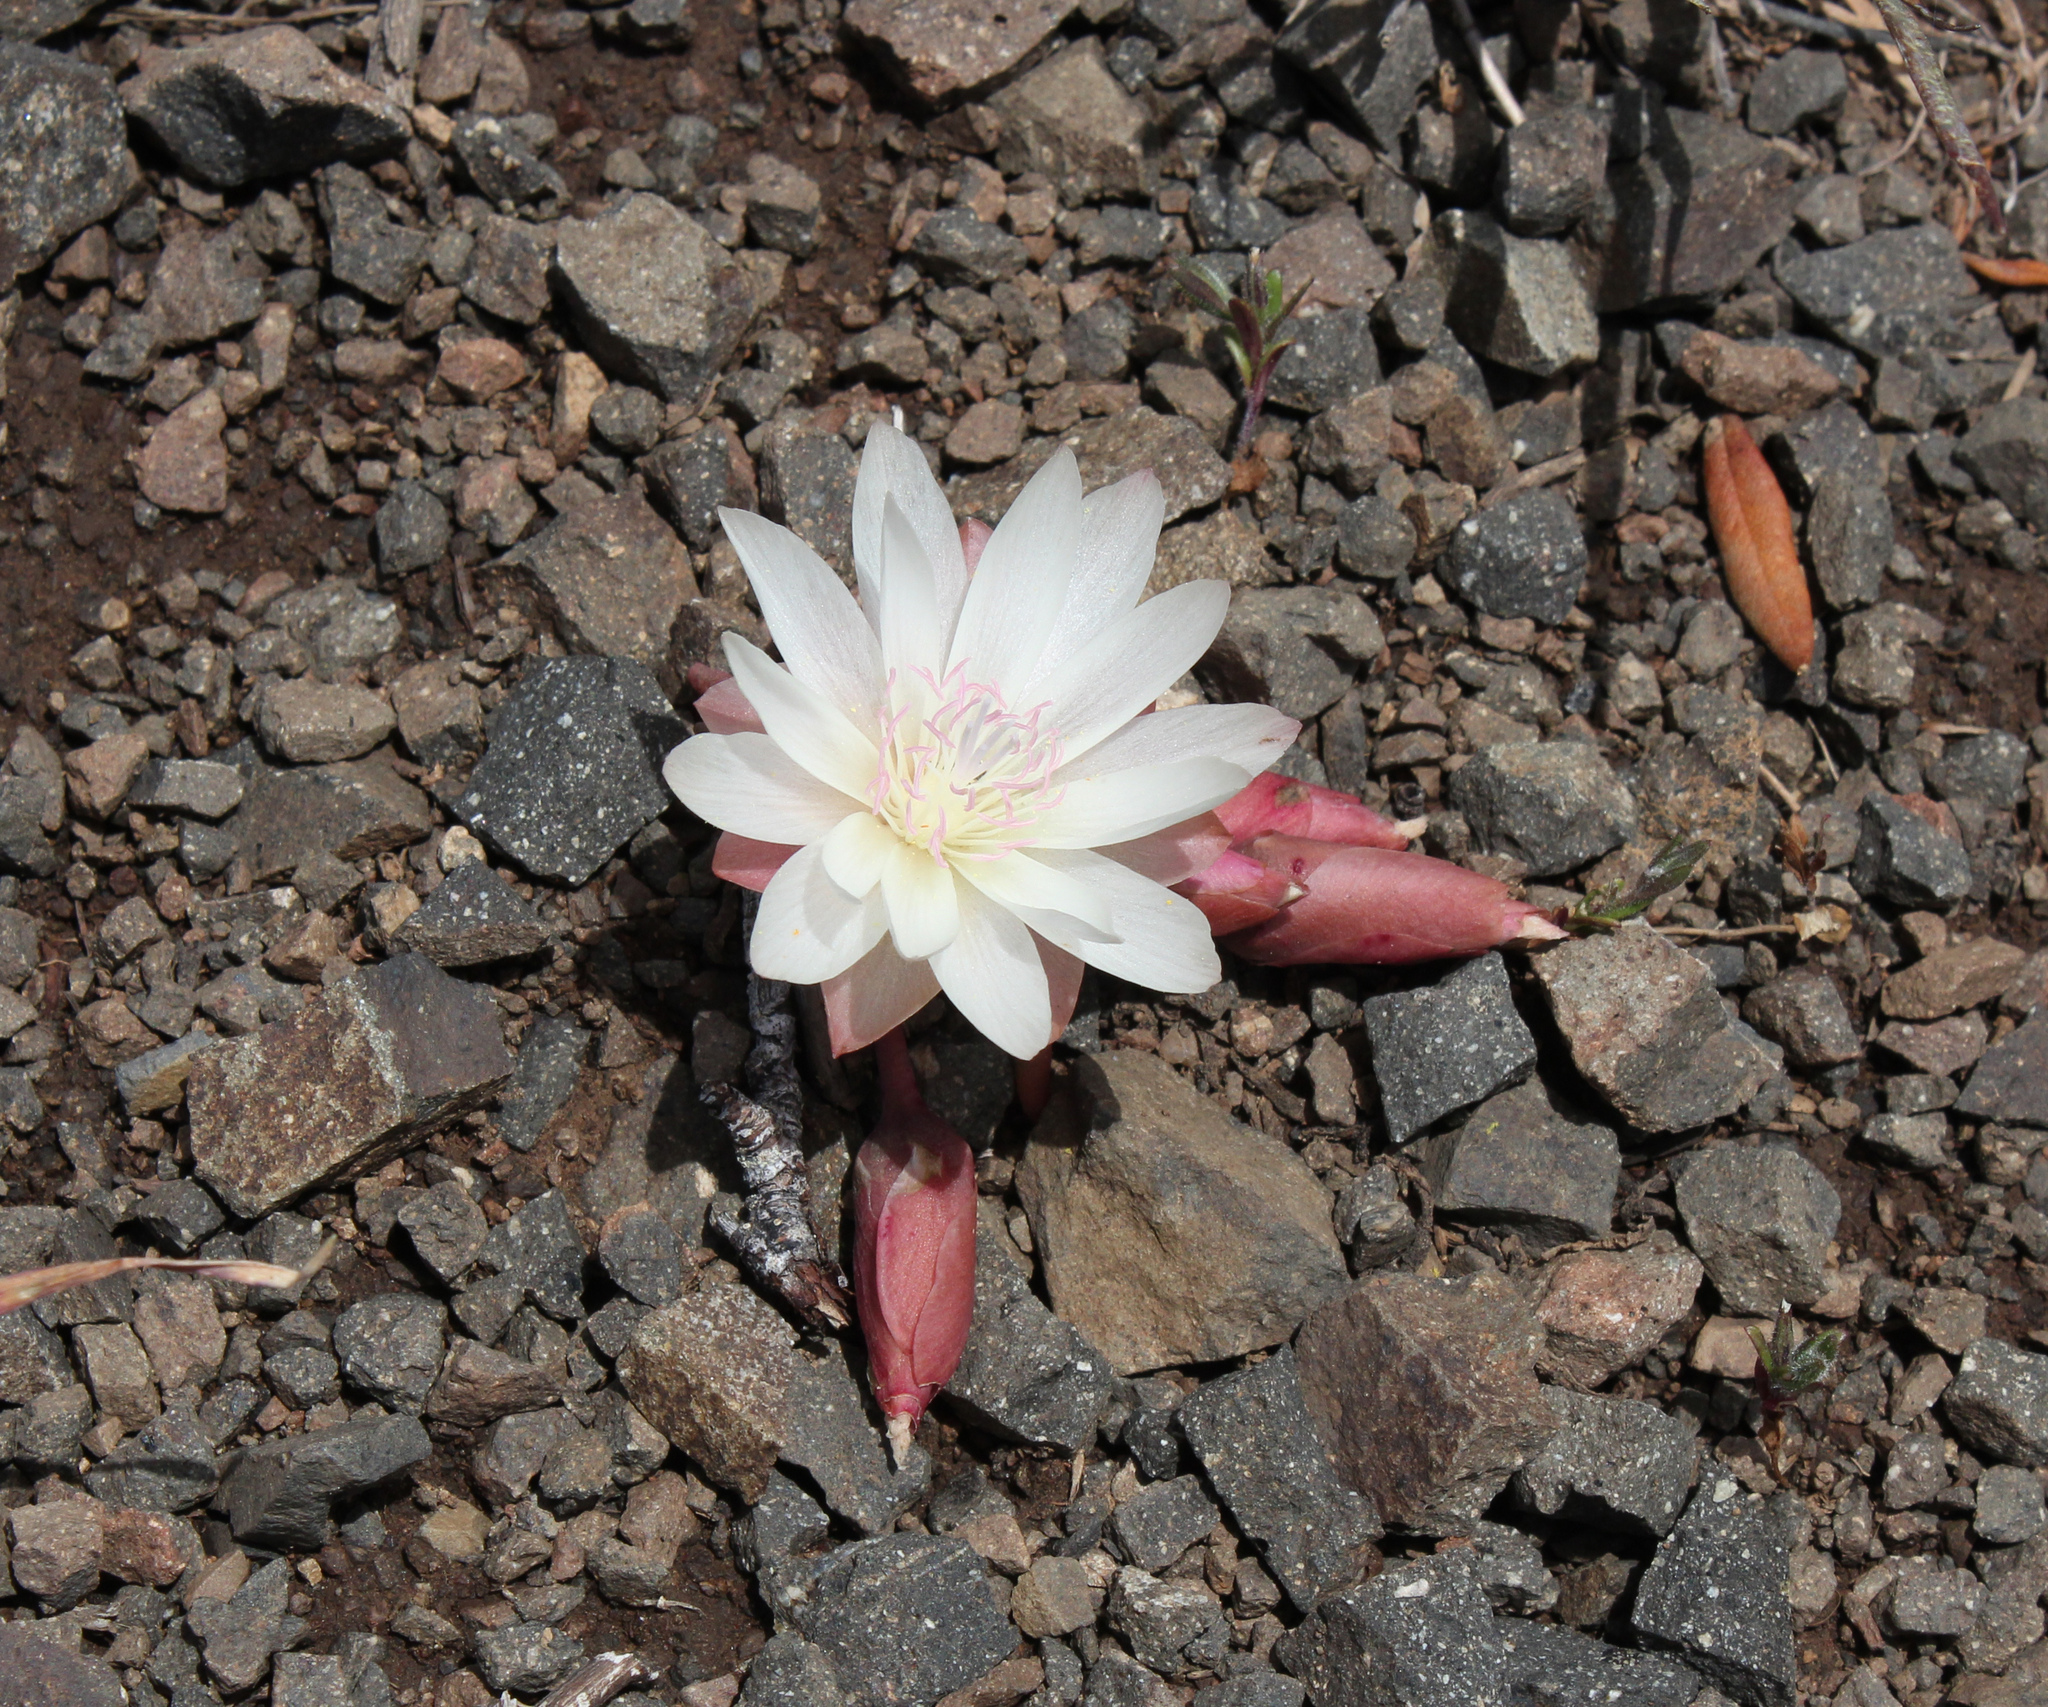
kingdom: Plantae
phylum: Tracheophyta
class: Magnoliopsida
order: Caryophyllales
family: Montiaceae
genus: Lewisia
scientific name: Lewisia rediviva
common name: Bitter-root
